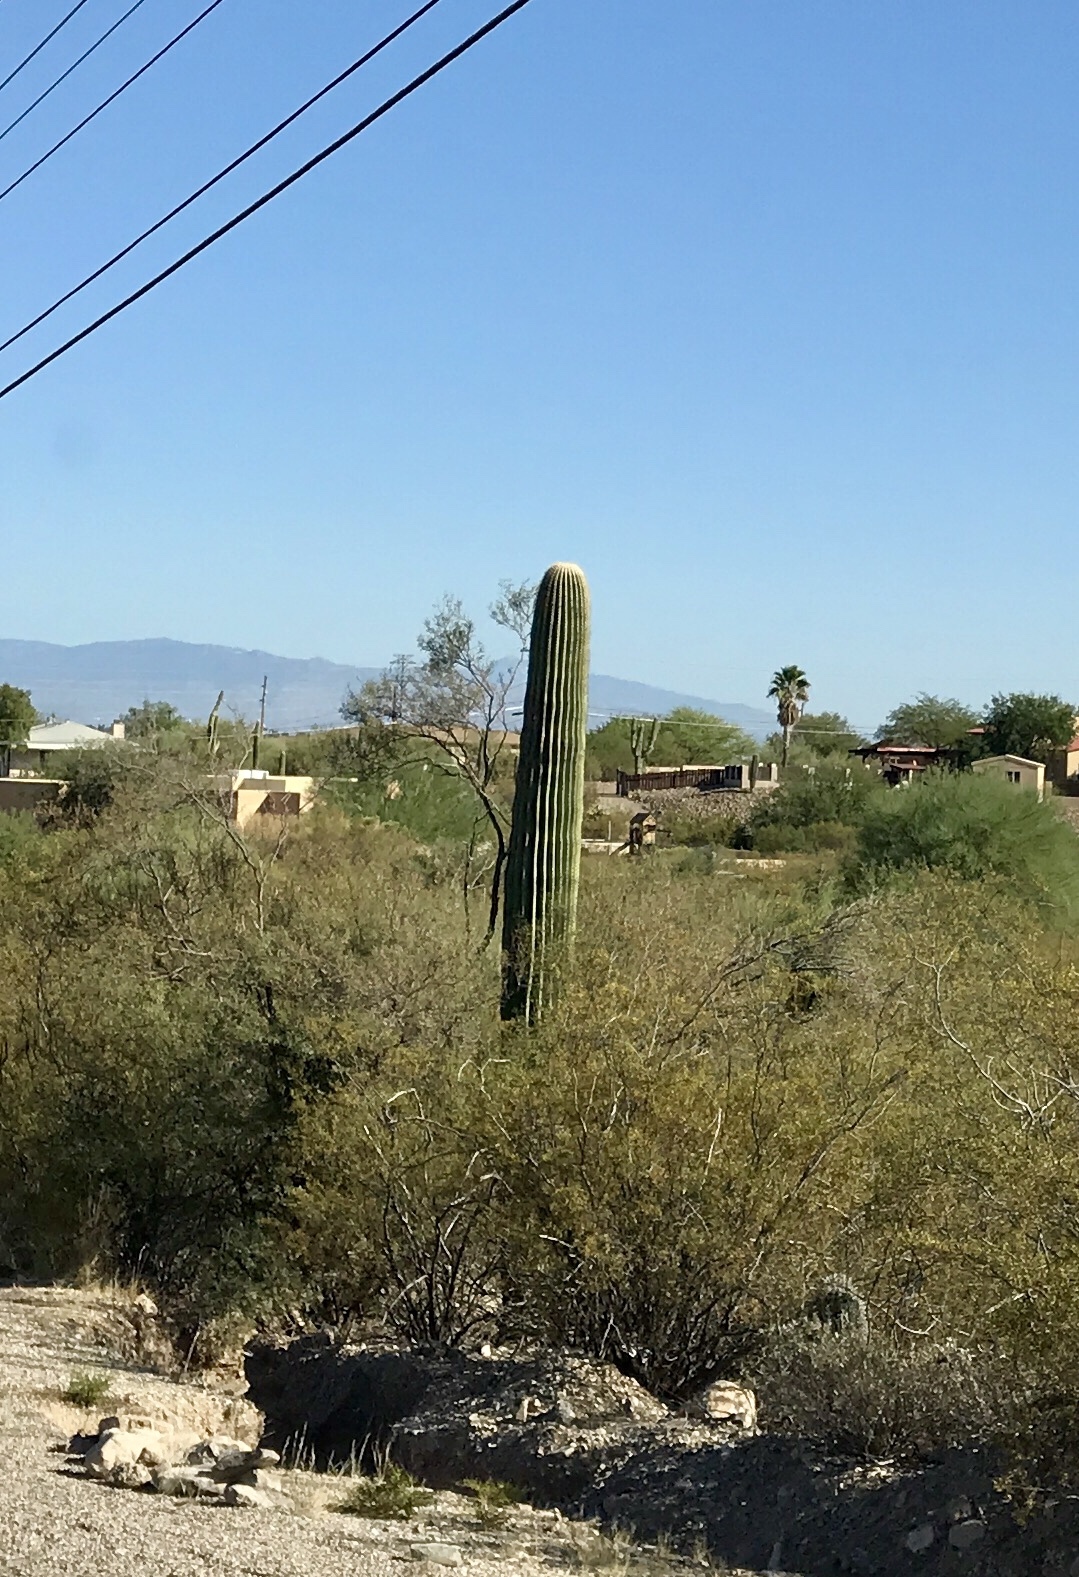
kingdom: Plantae
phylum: Tracheophyta
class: Magnoliopsida
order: Zygophyllales
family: Zygophyllaceae
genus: Larrea
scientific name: Larrea tridentata
